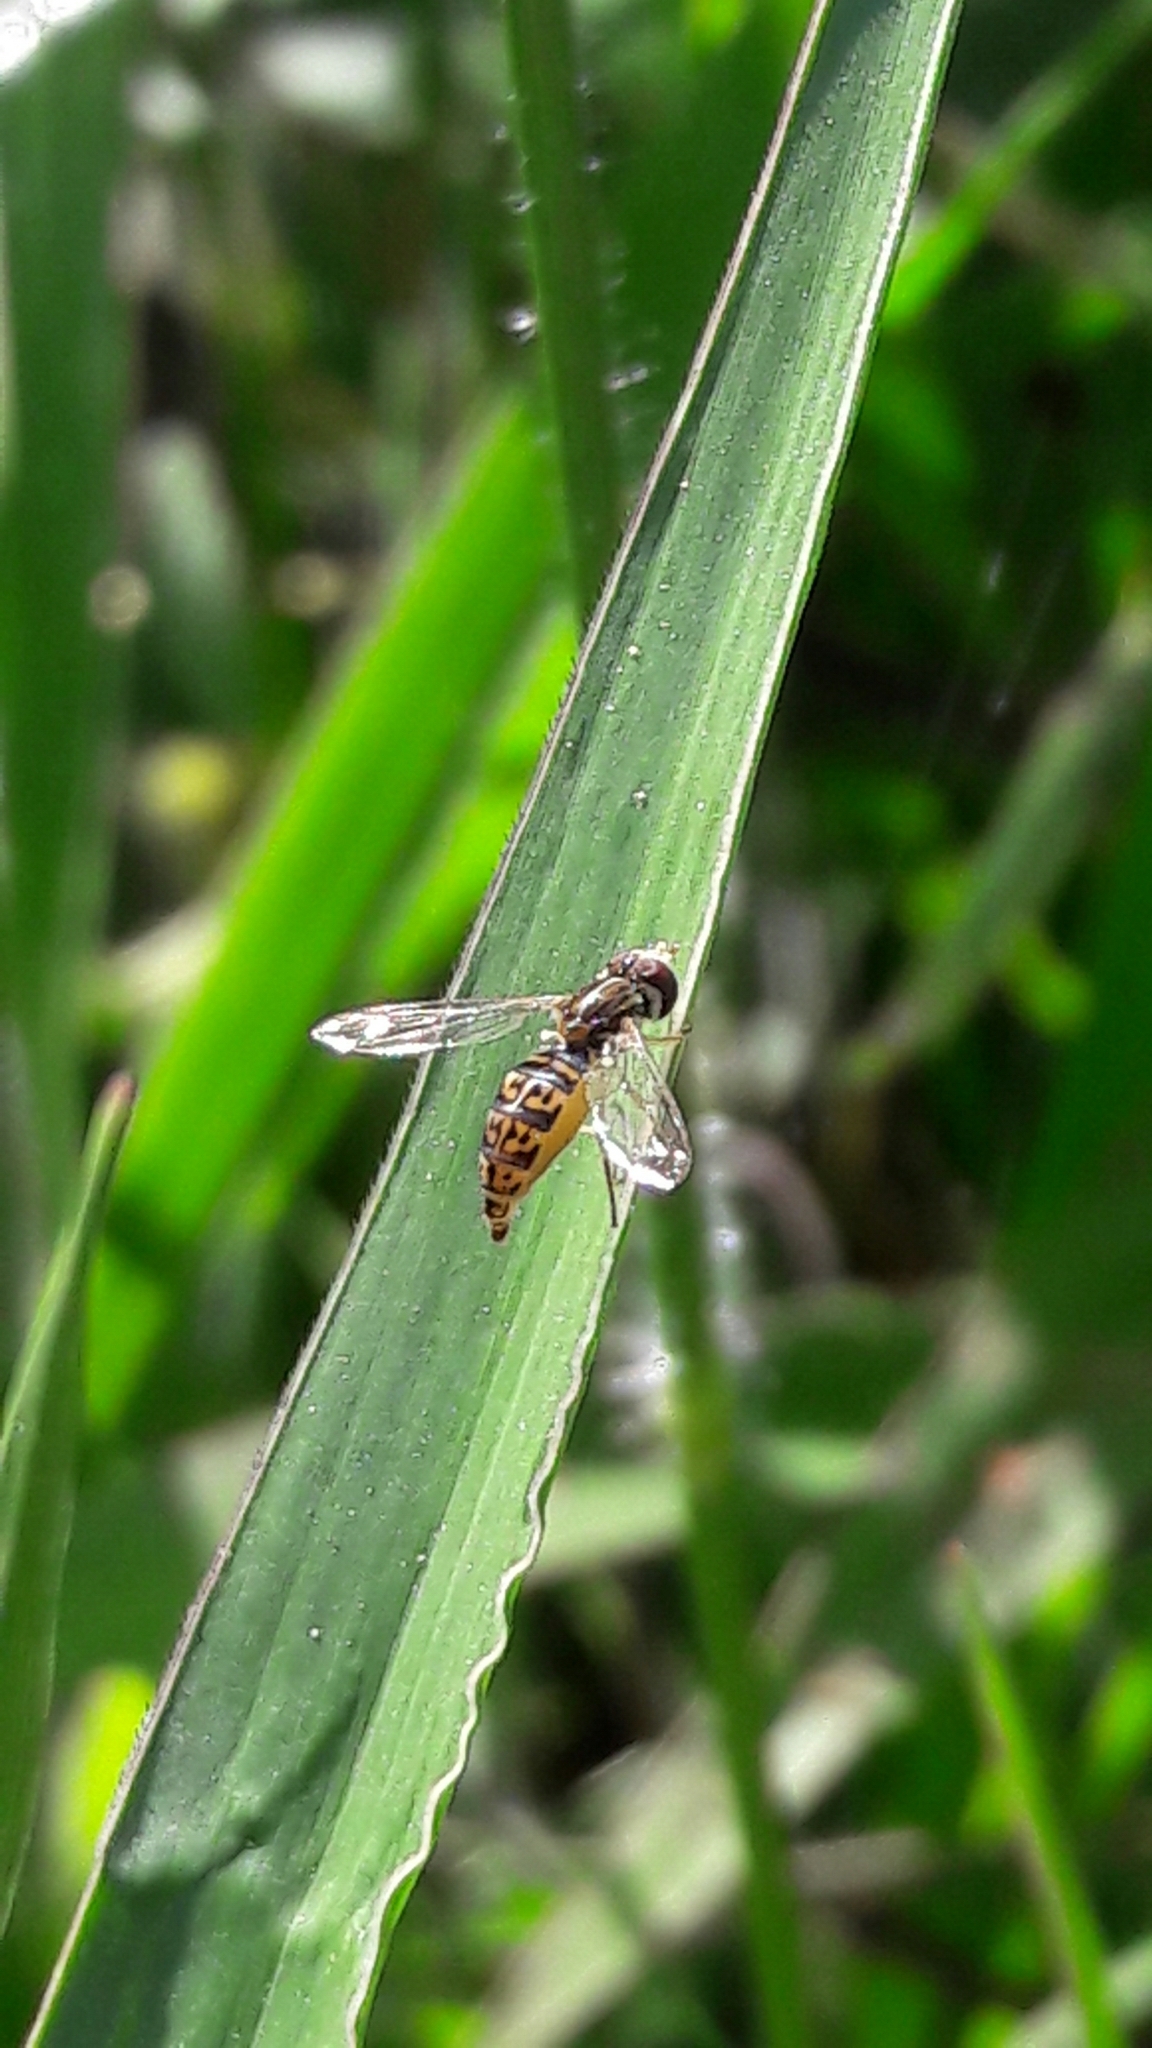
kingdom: Animalia
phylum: Arthropoda
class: Insecta
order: Diptera
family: Syrphidae
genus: Toxomerus
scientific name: Toxomerus
